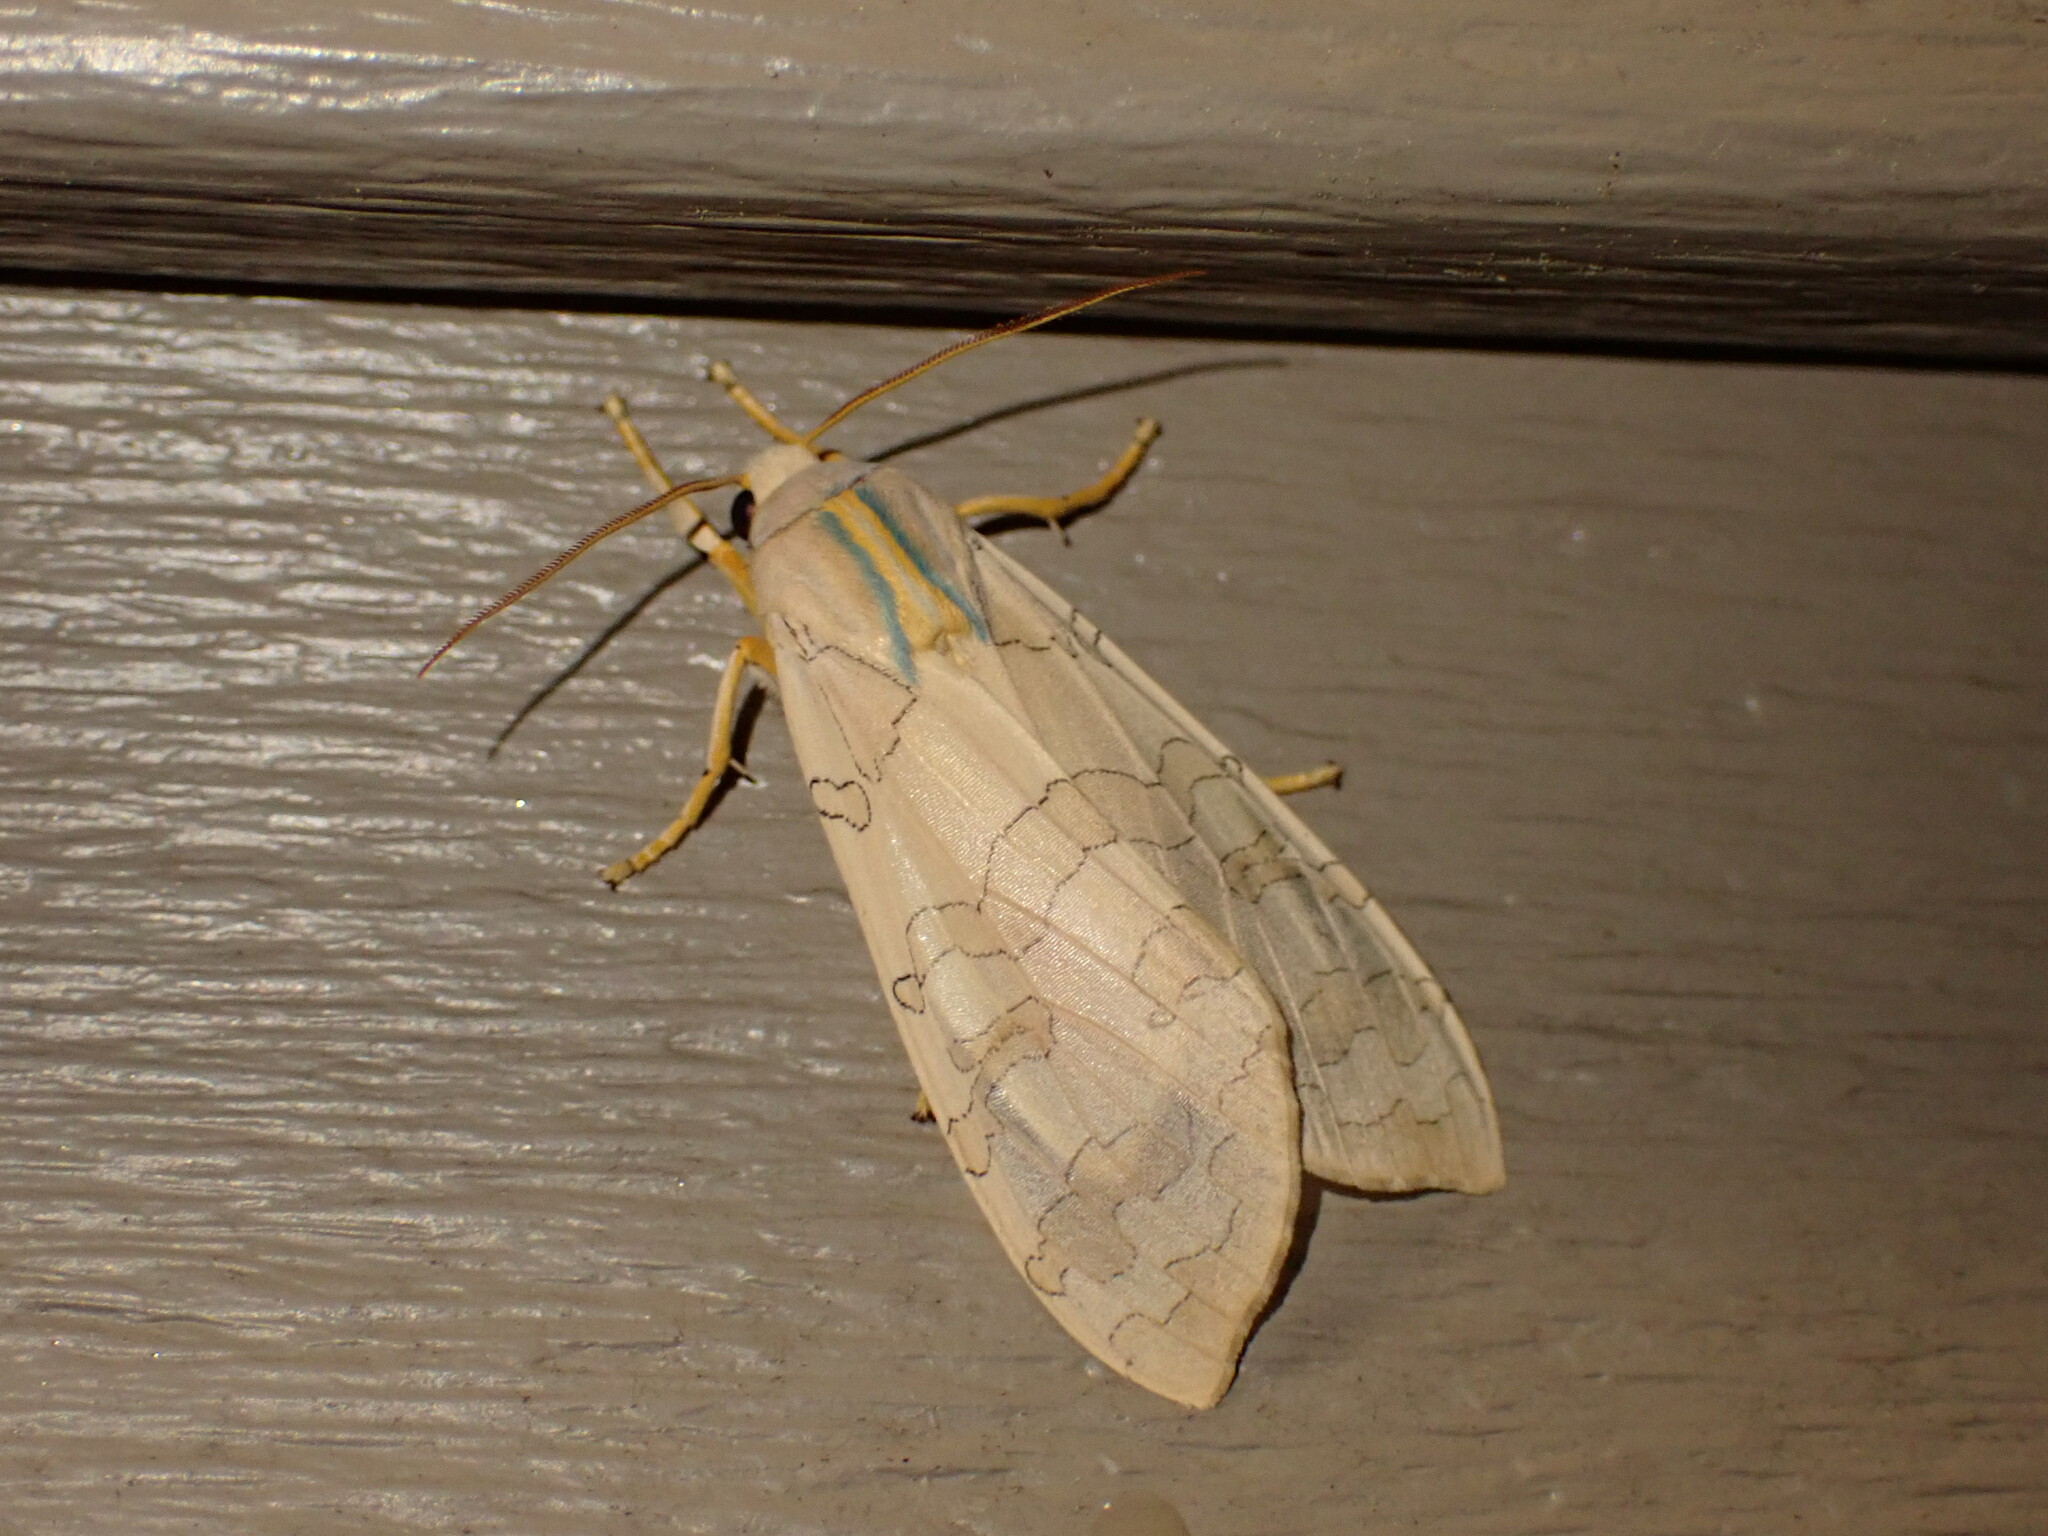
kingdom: Animalia
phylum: Arthropoda
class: Insecta
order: Lepidoptera
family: Erebidae
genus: Halysidota
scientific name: Halysidota
